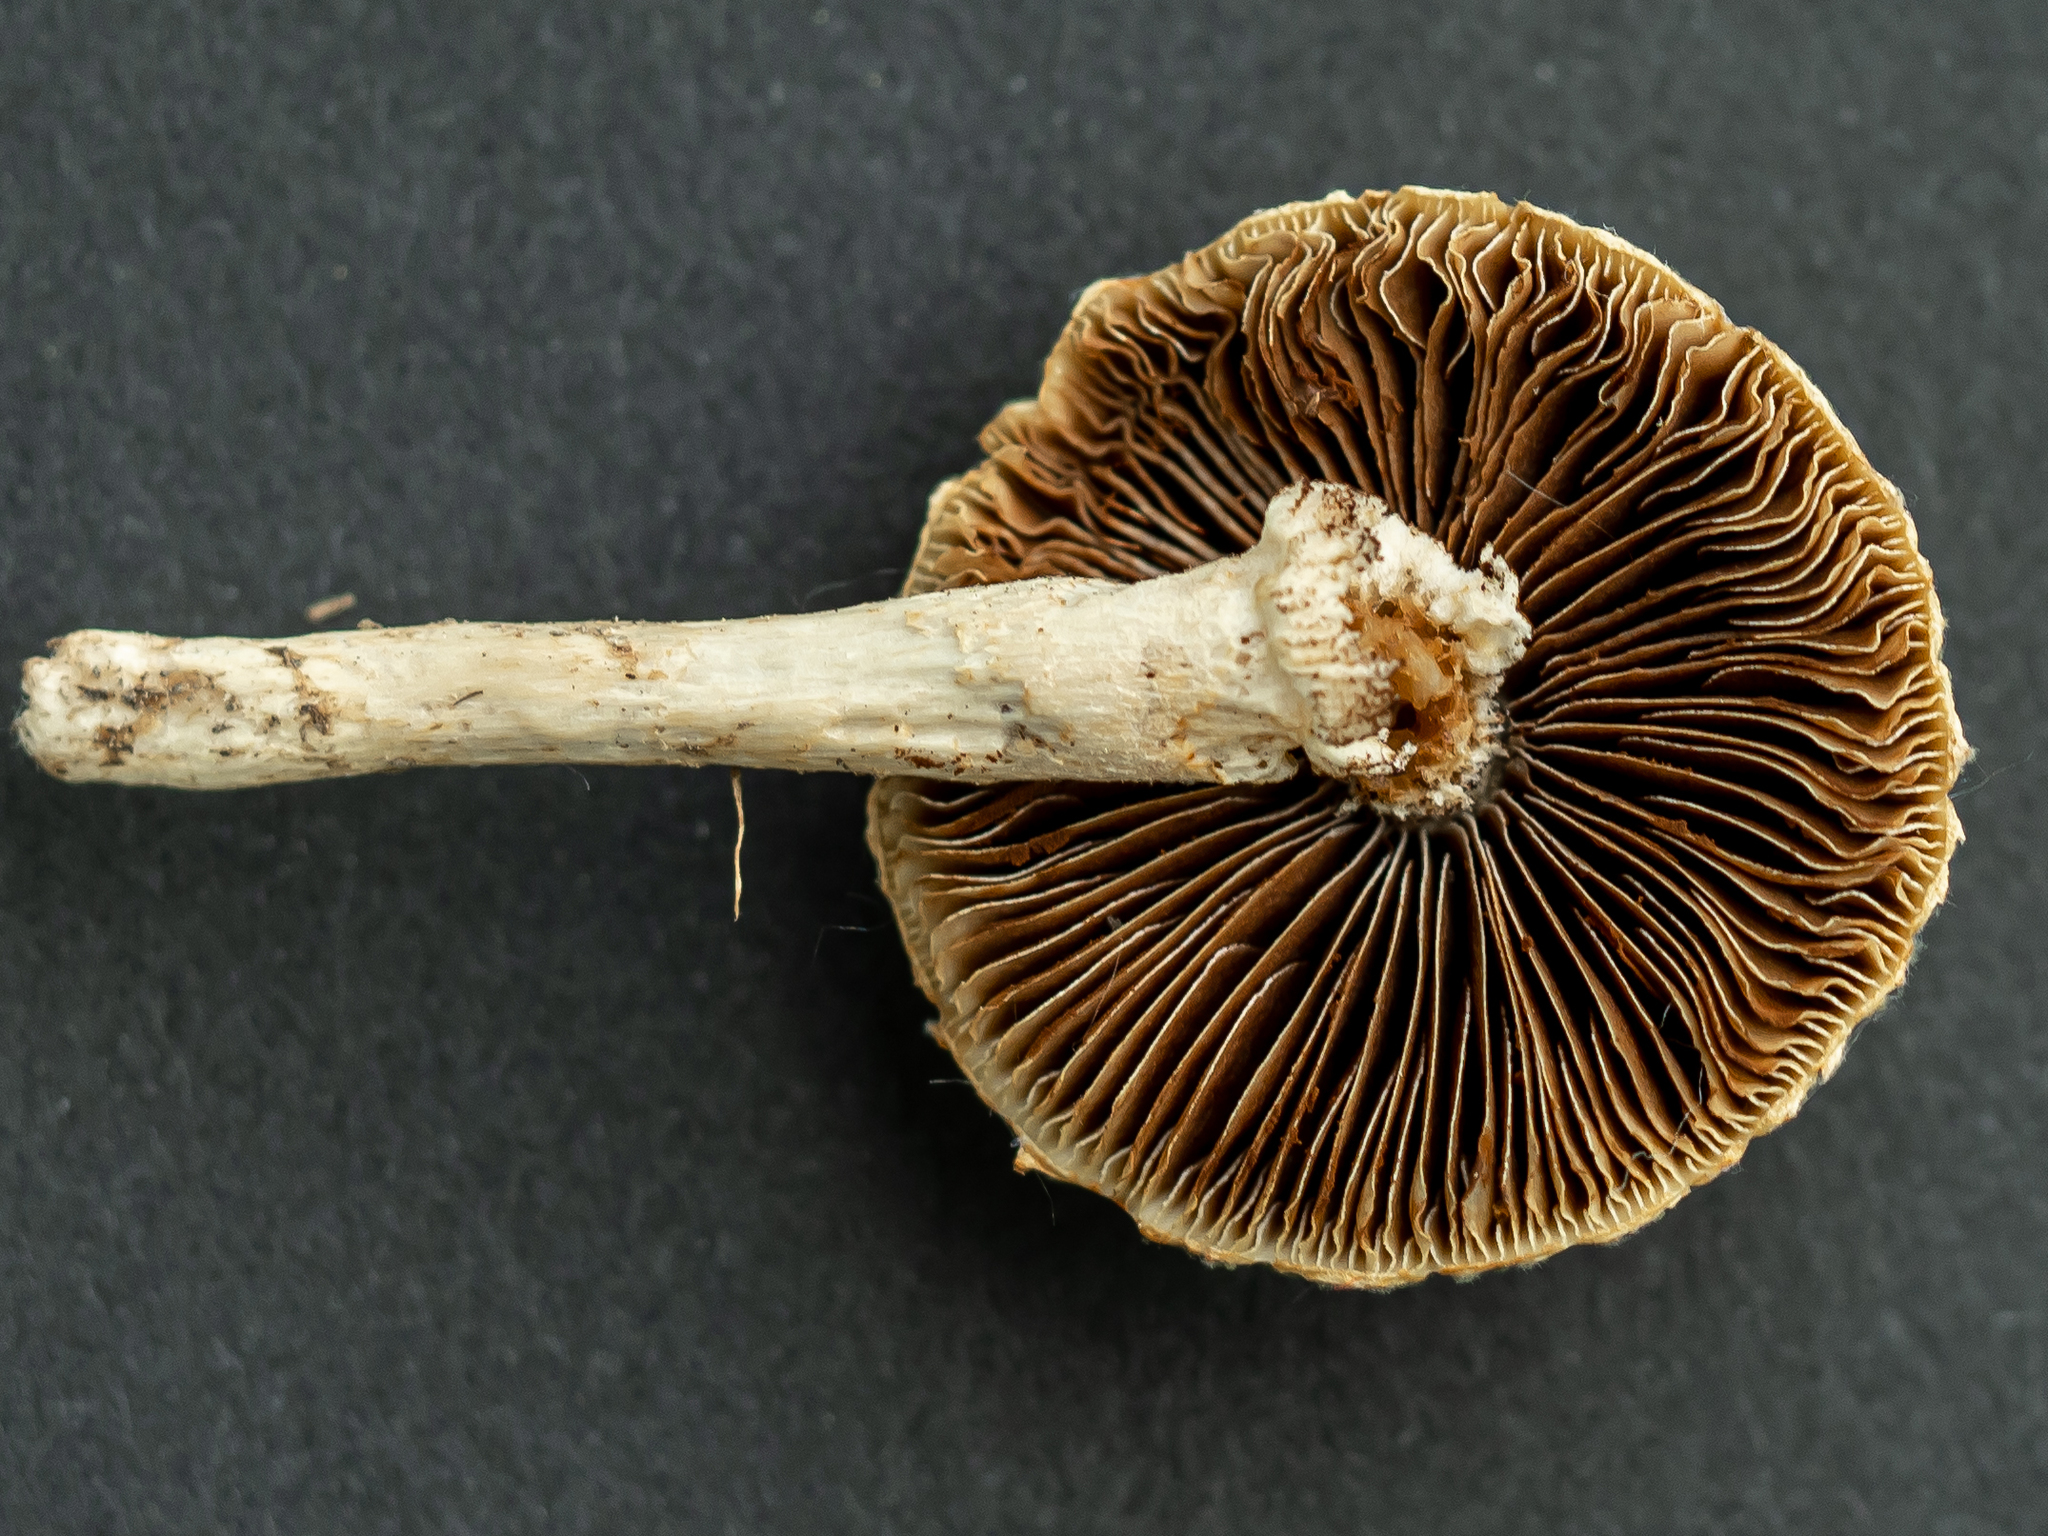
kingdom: Fungi
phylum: Basidiomycota
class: Agaricomycetes
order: Agaricales
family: Strophariaceae
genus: Agrocybe
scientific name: Agrocybe molesta
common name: Bearded fieldcap
